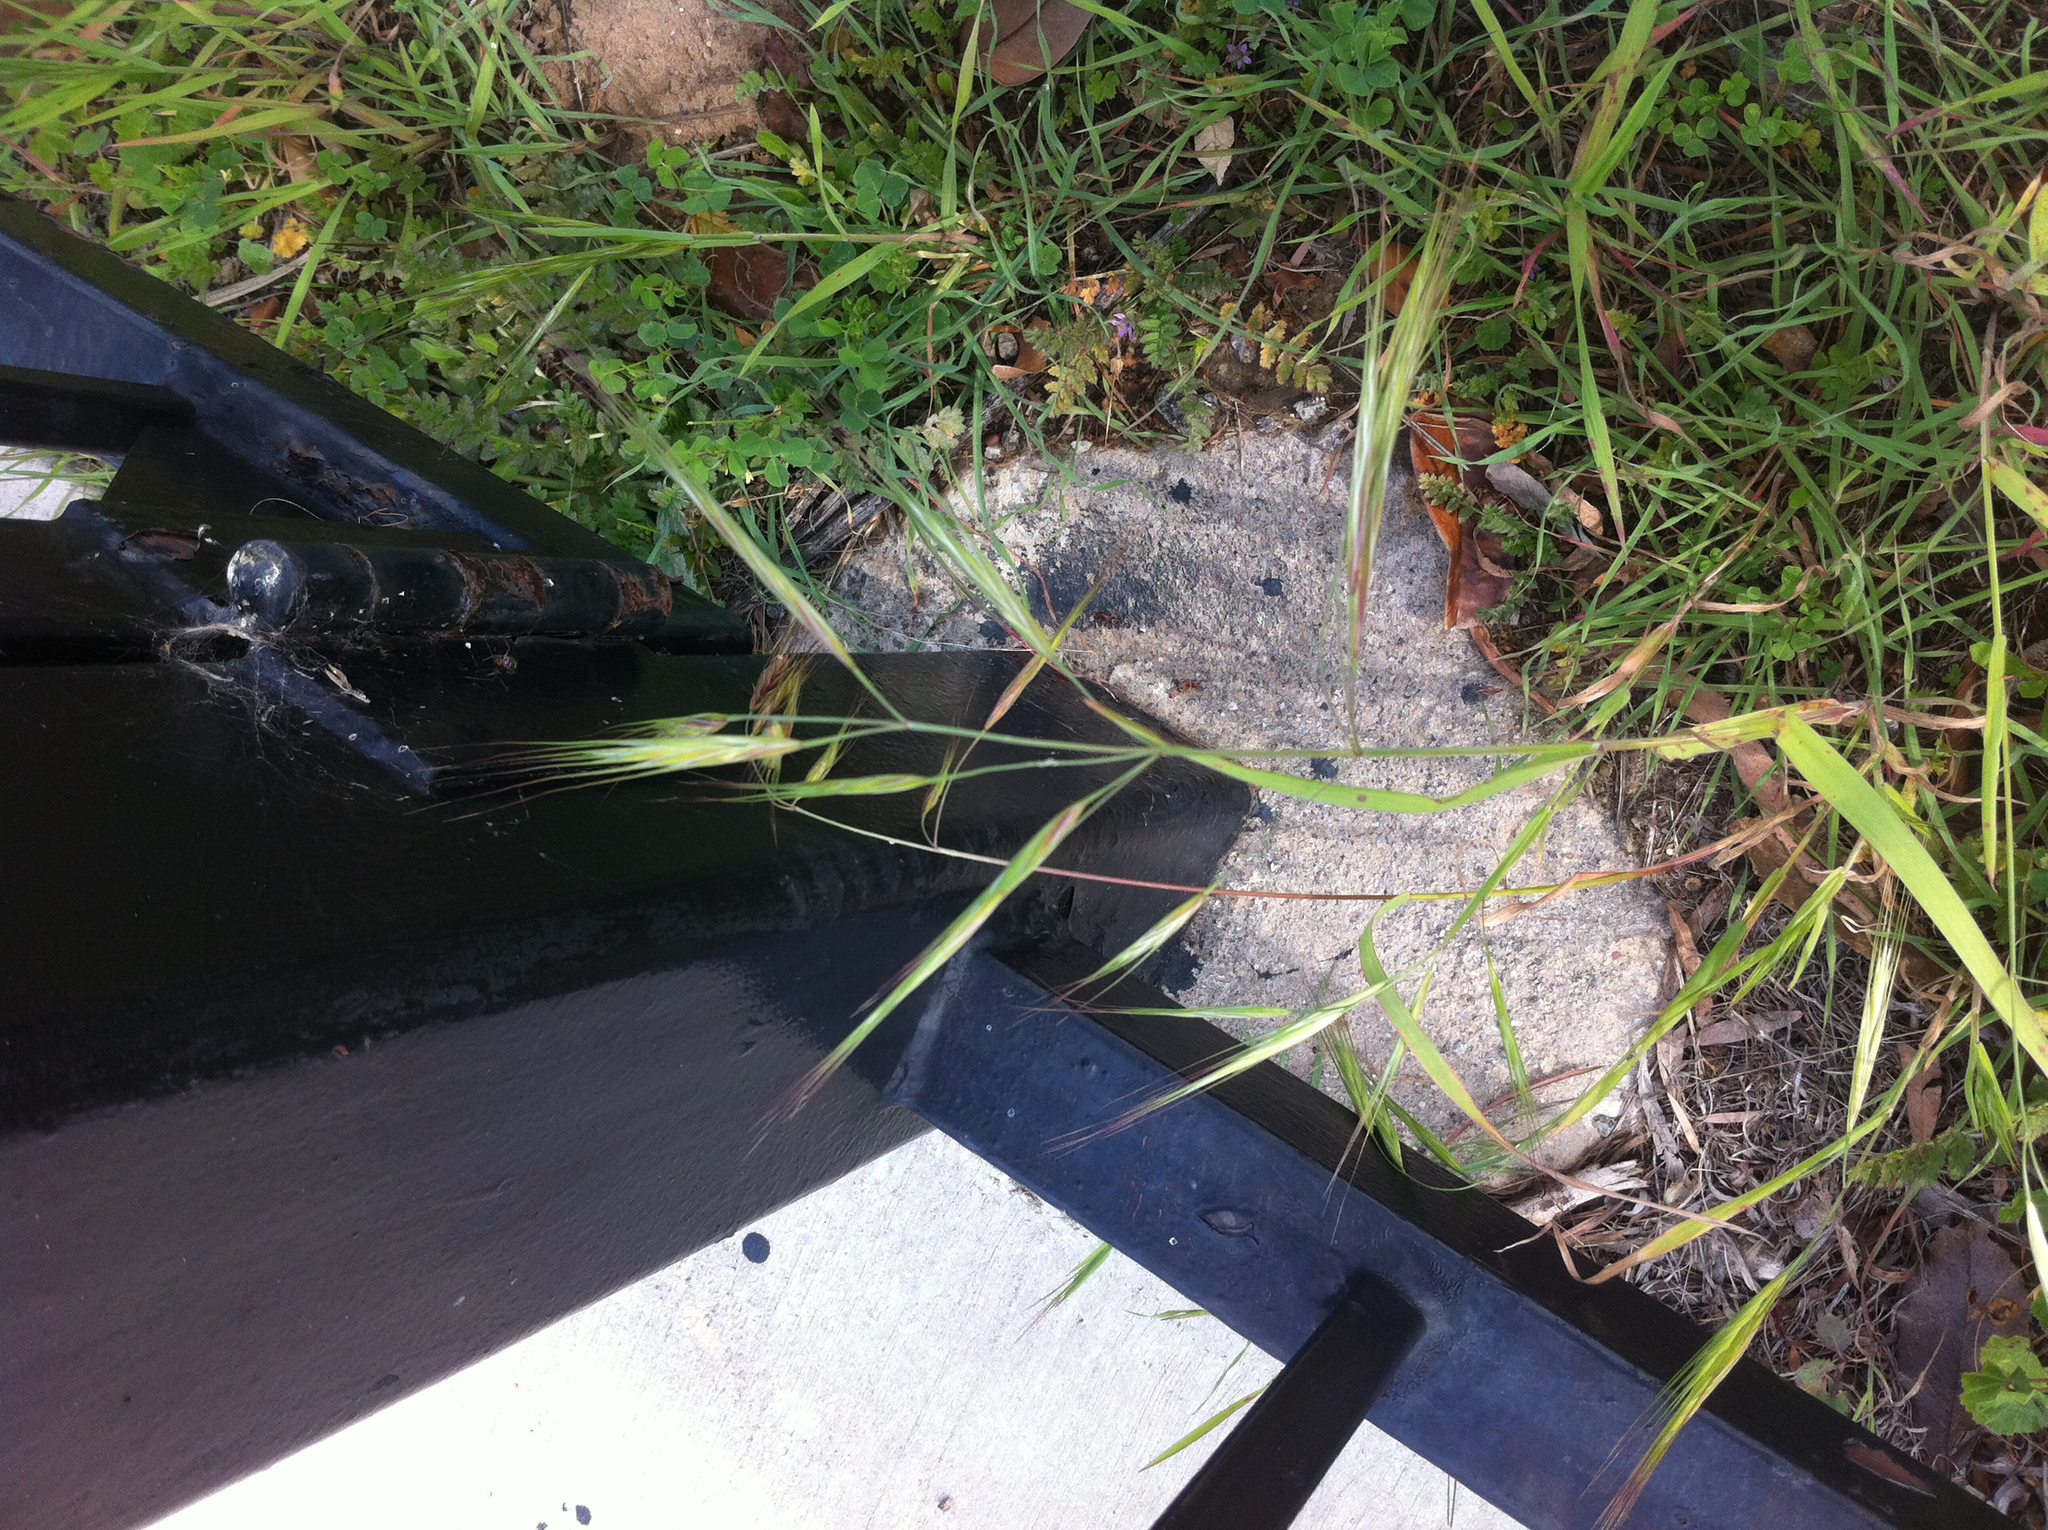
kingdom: Plantae
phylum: Tracheophyta
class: Liliopsida
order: Poales
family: Poaceae
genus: Bromus
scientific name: Bromus diandrus
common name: Ripgut brome
